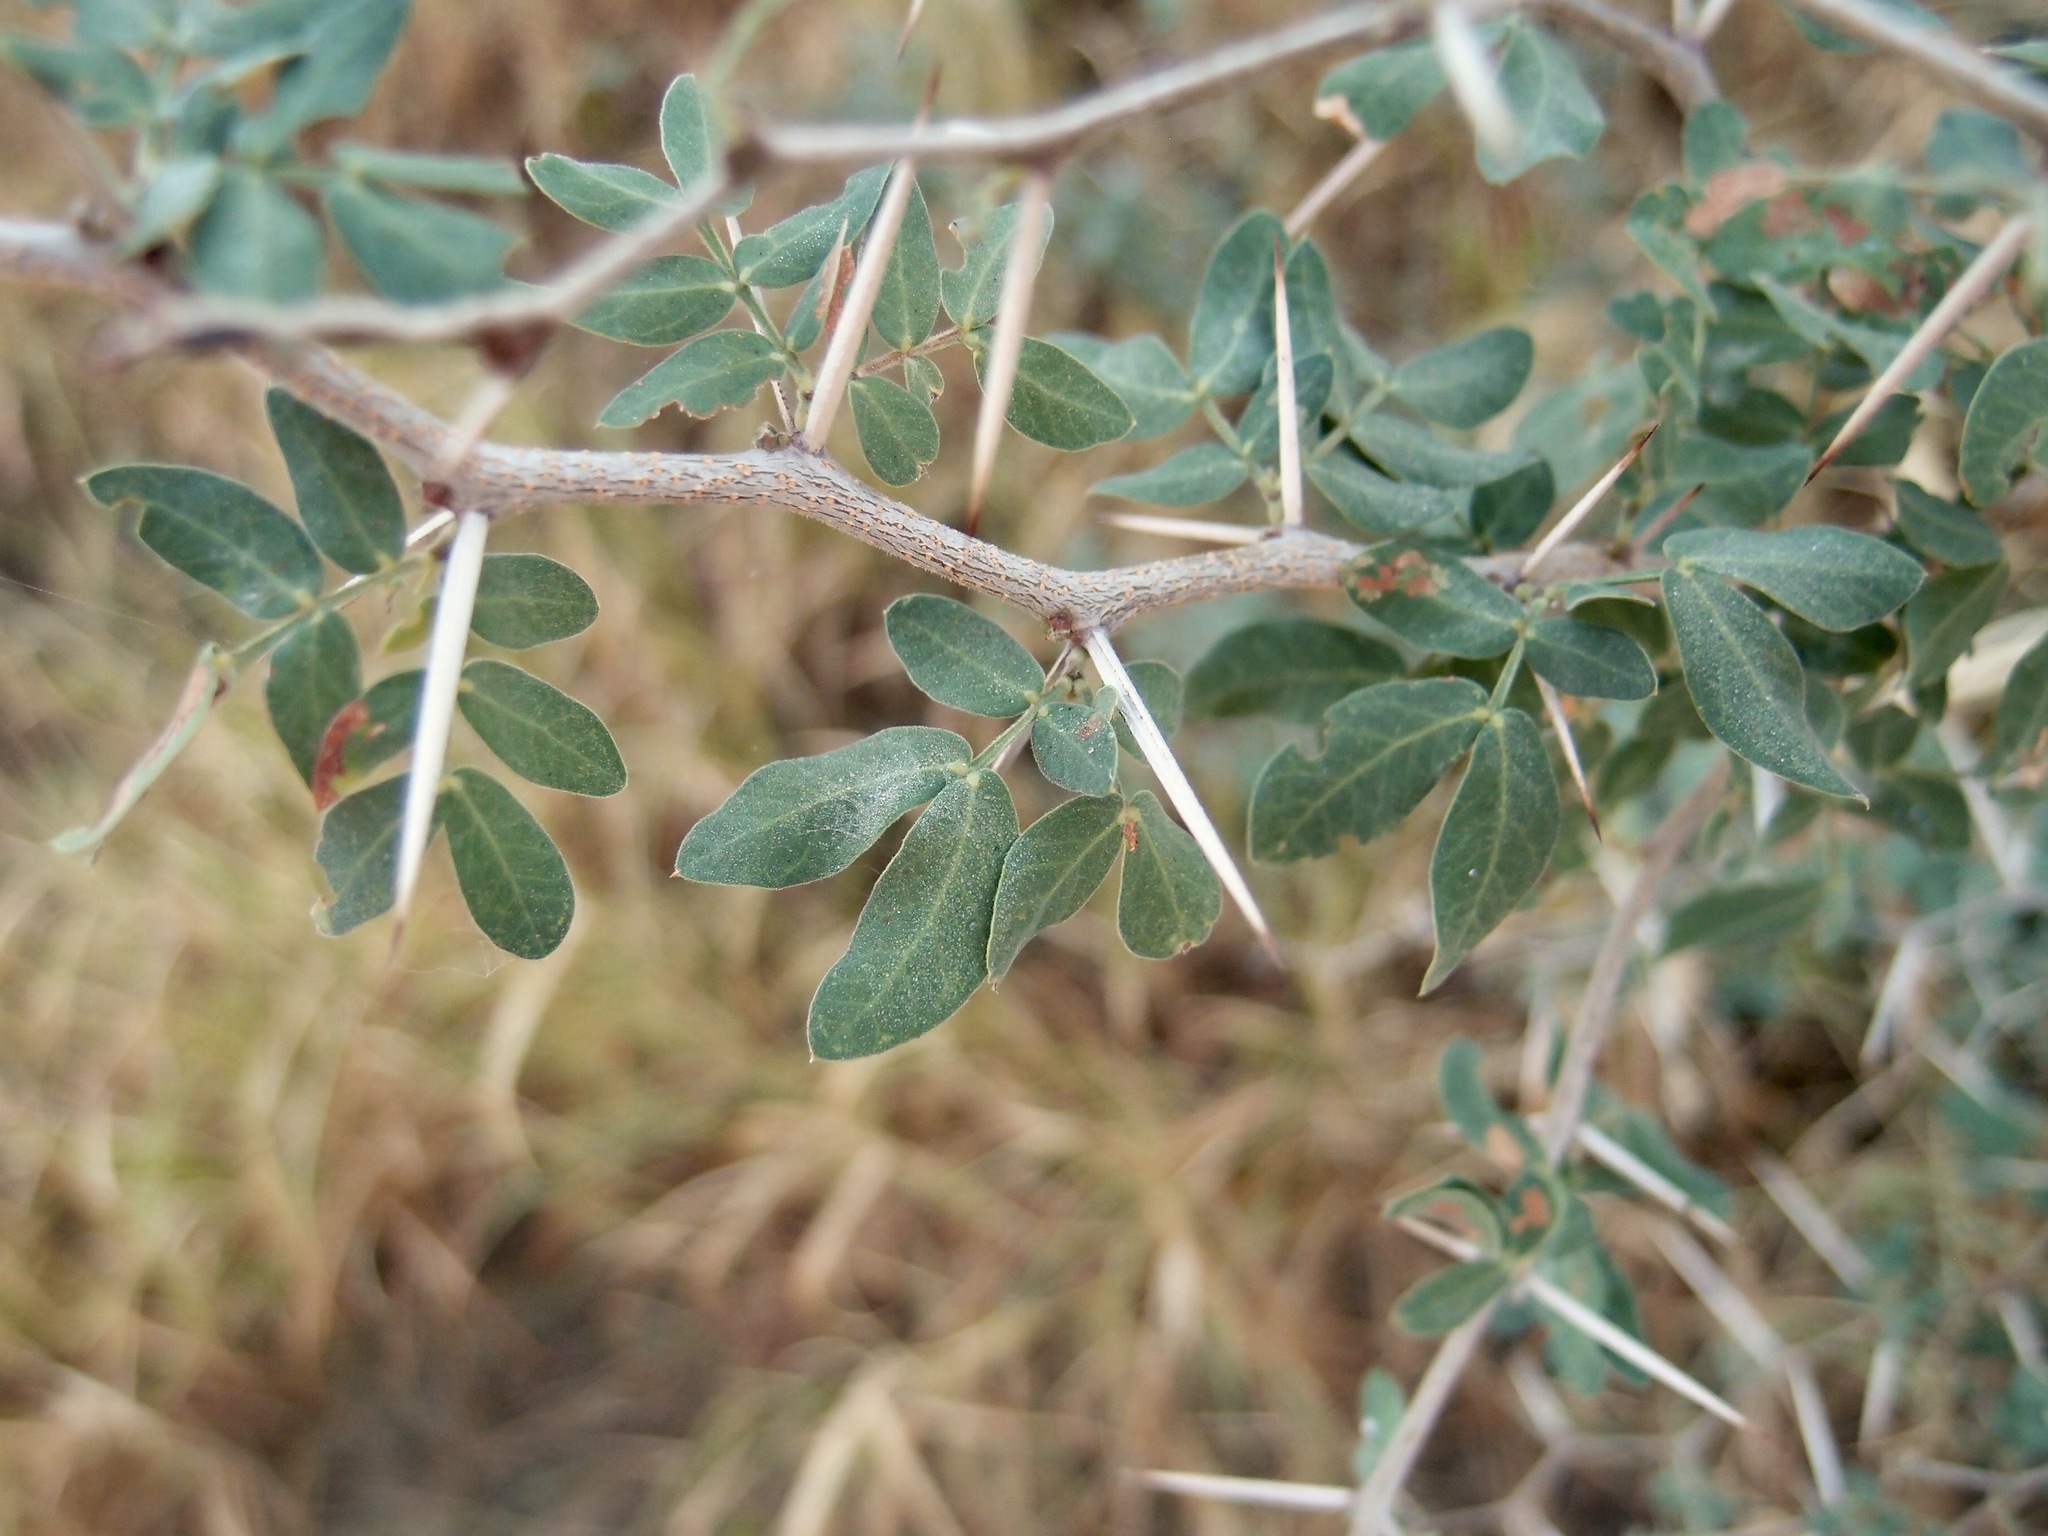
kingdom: Plantae
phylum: Tracheophyta
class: Magnoliopsida
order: Fabales
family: Fabaceae
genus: Vachellia
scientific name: Vachellia californica
